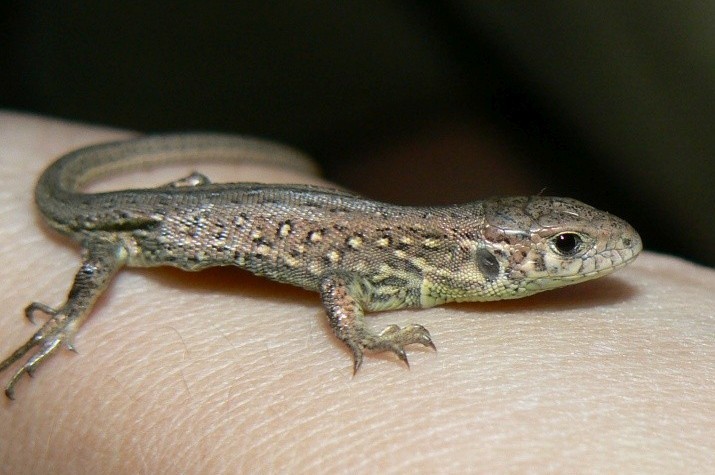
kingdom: Animalia
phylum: Chordata
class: Squamata
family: Lacertidae
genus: Lacerta
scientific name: Lacerta agilis
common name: Sand lizard
